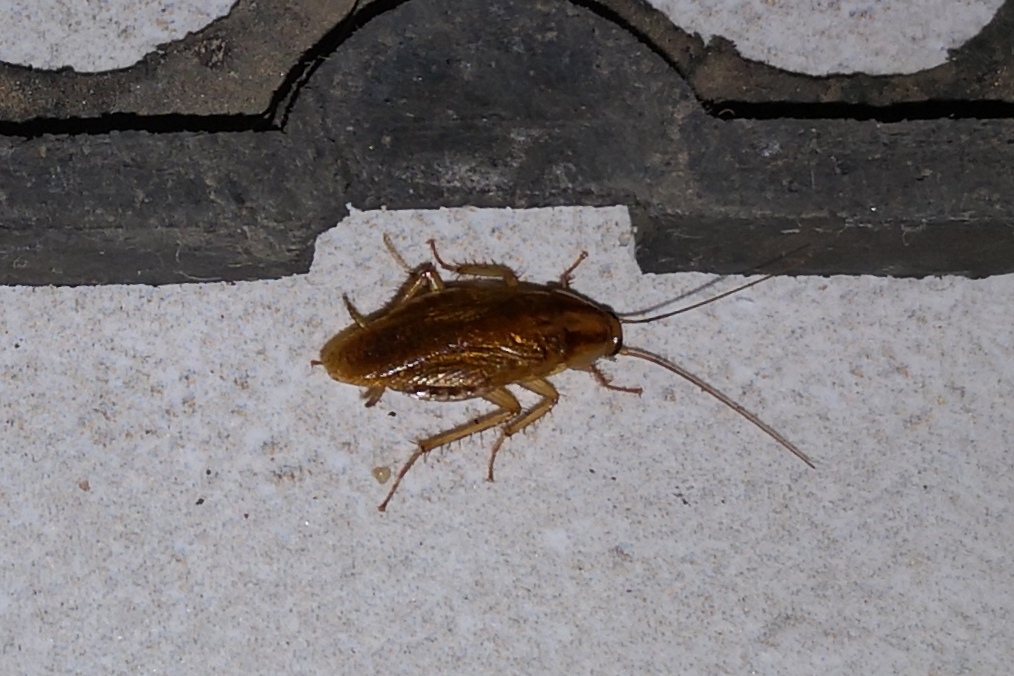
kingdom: Animalia
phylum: Arthropoda
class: Insecta
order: Blattodea
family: Ectobiidae
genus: Blattella
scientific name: Blattella germanica
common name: German cockroach
